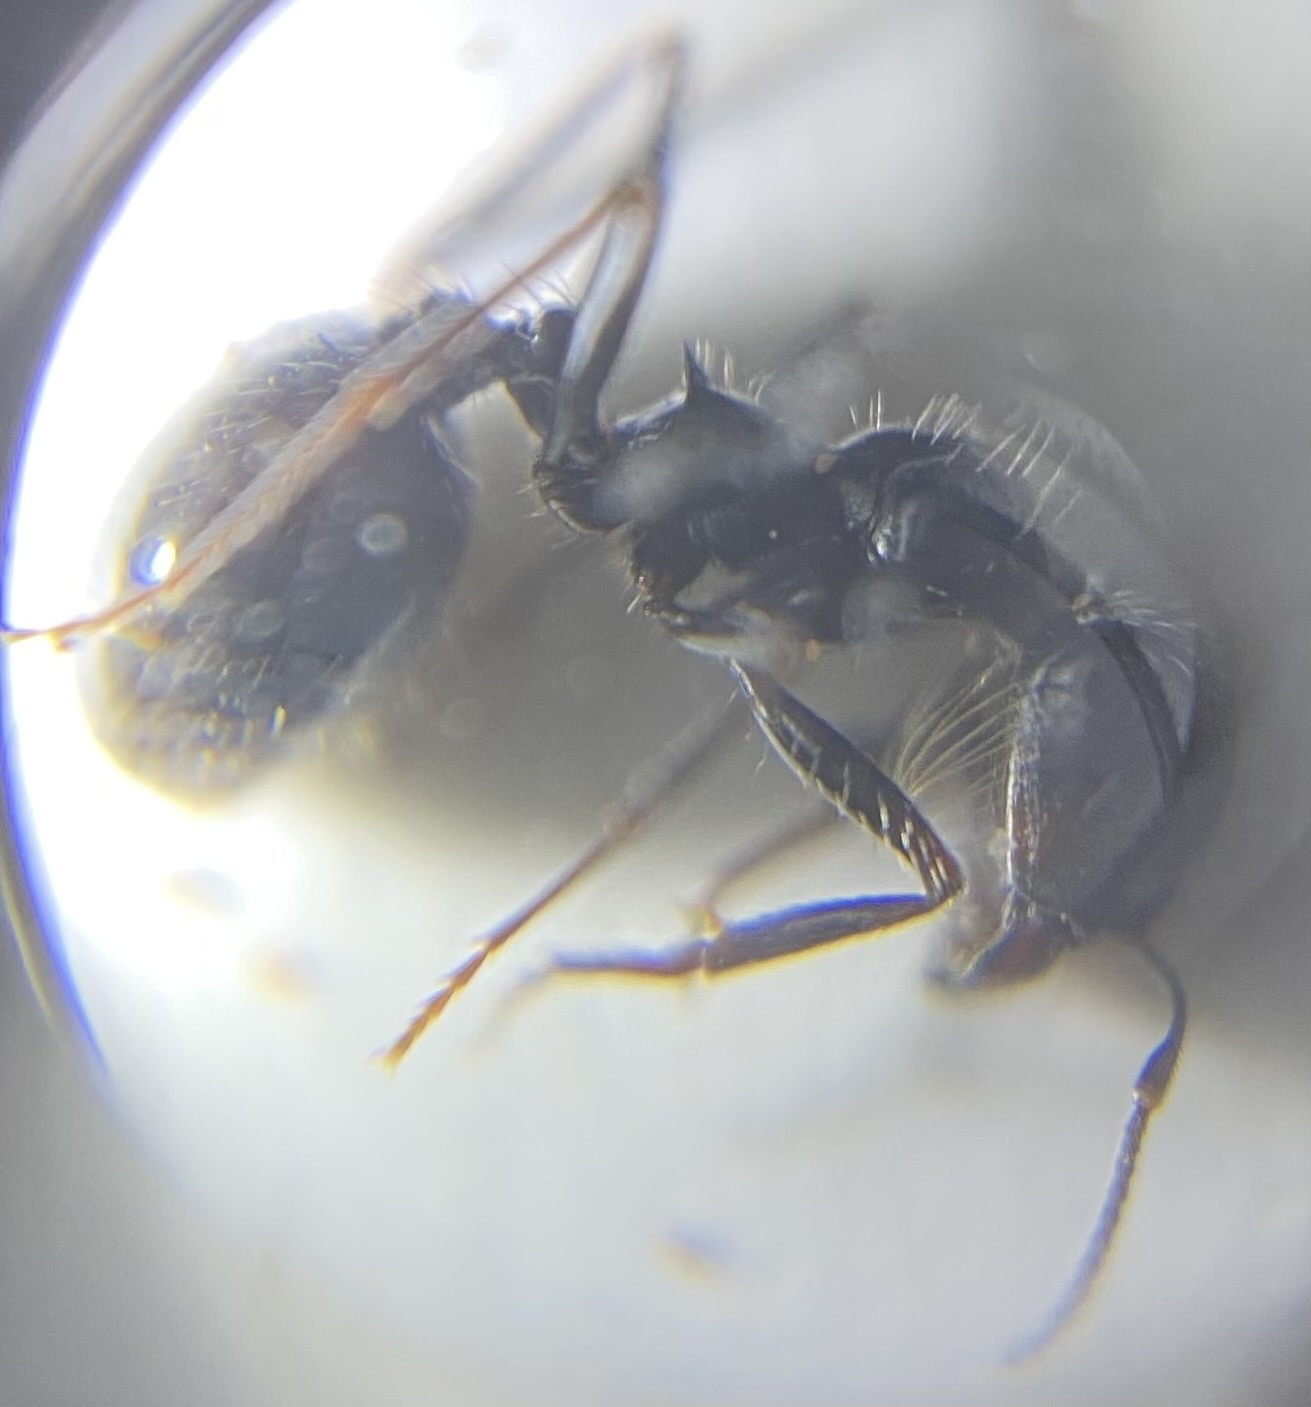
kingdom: Animalia
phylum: Arthropoda
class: Insecta
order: Hymenoptera
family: Formicidae
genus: Messor
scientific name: Messor pergandei
